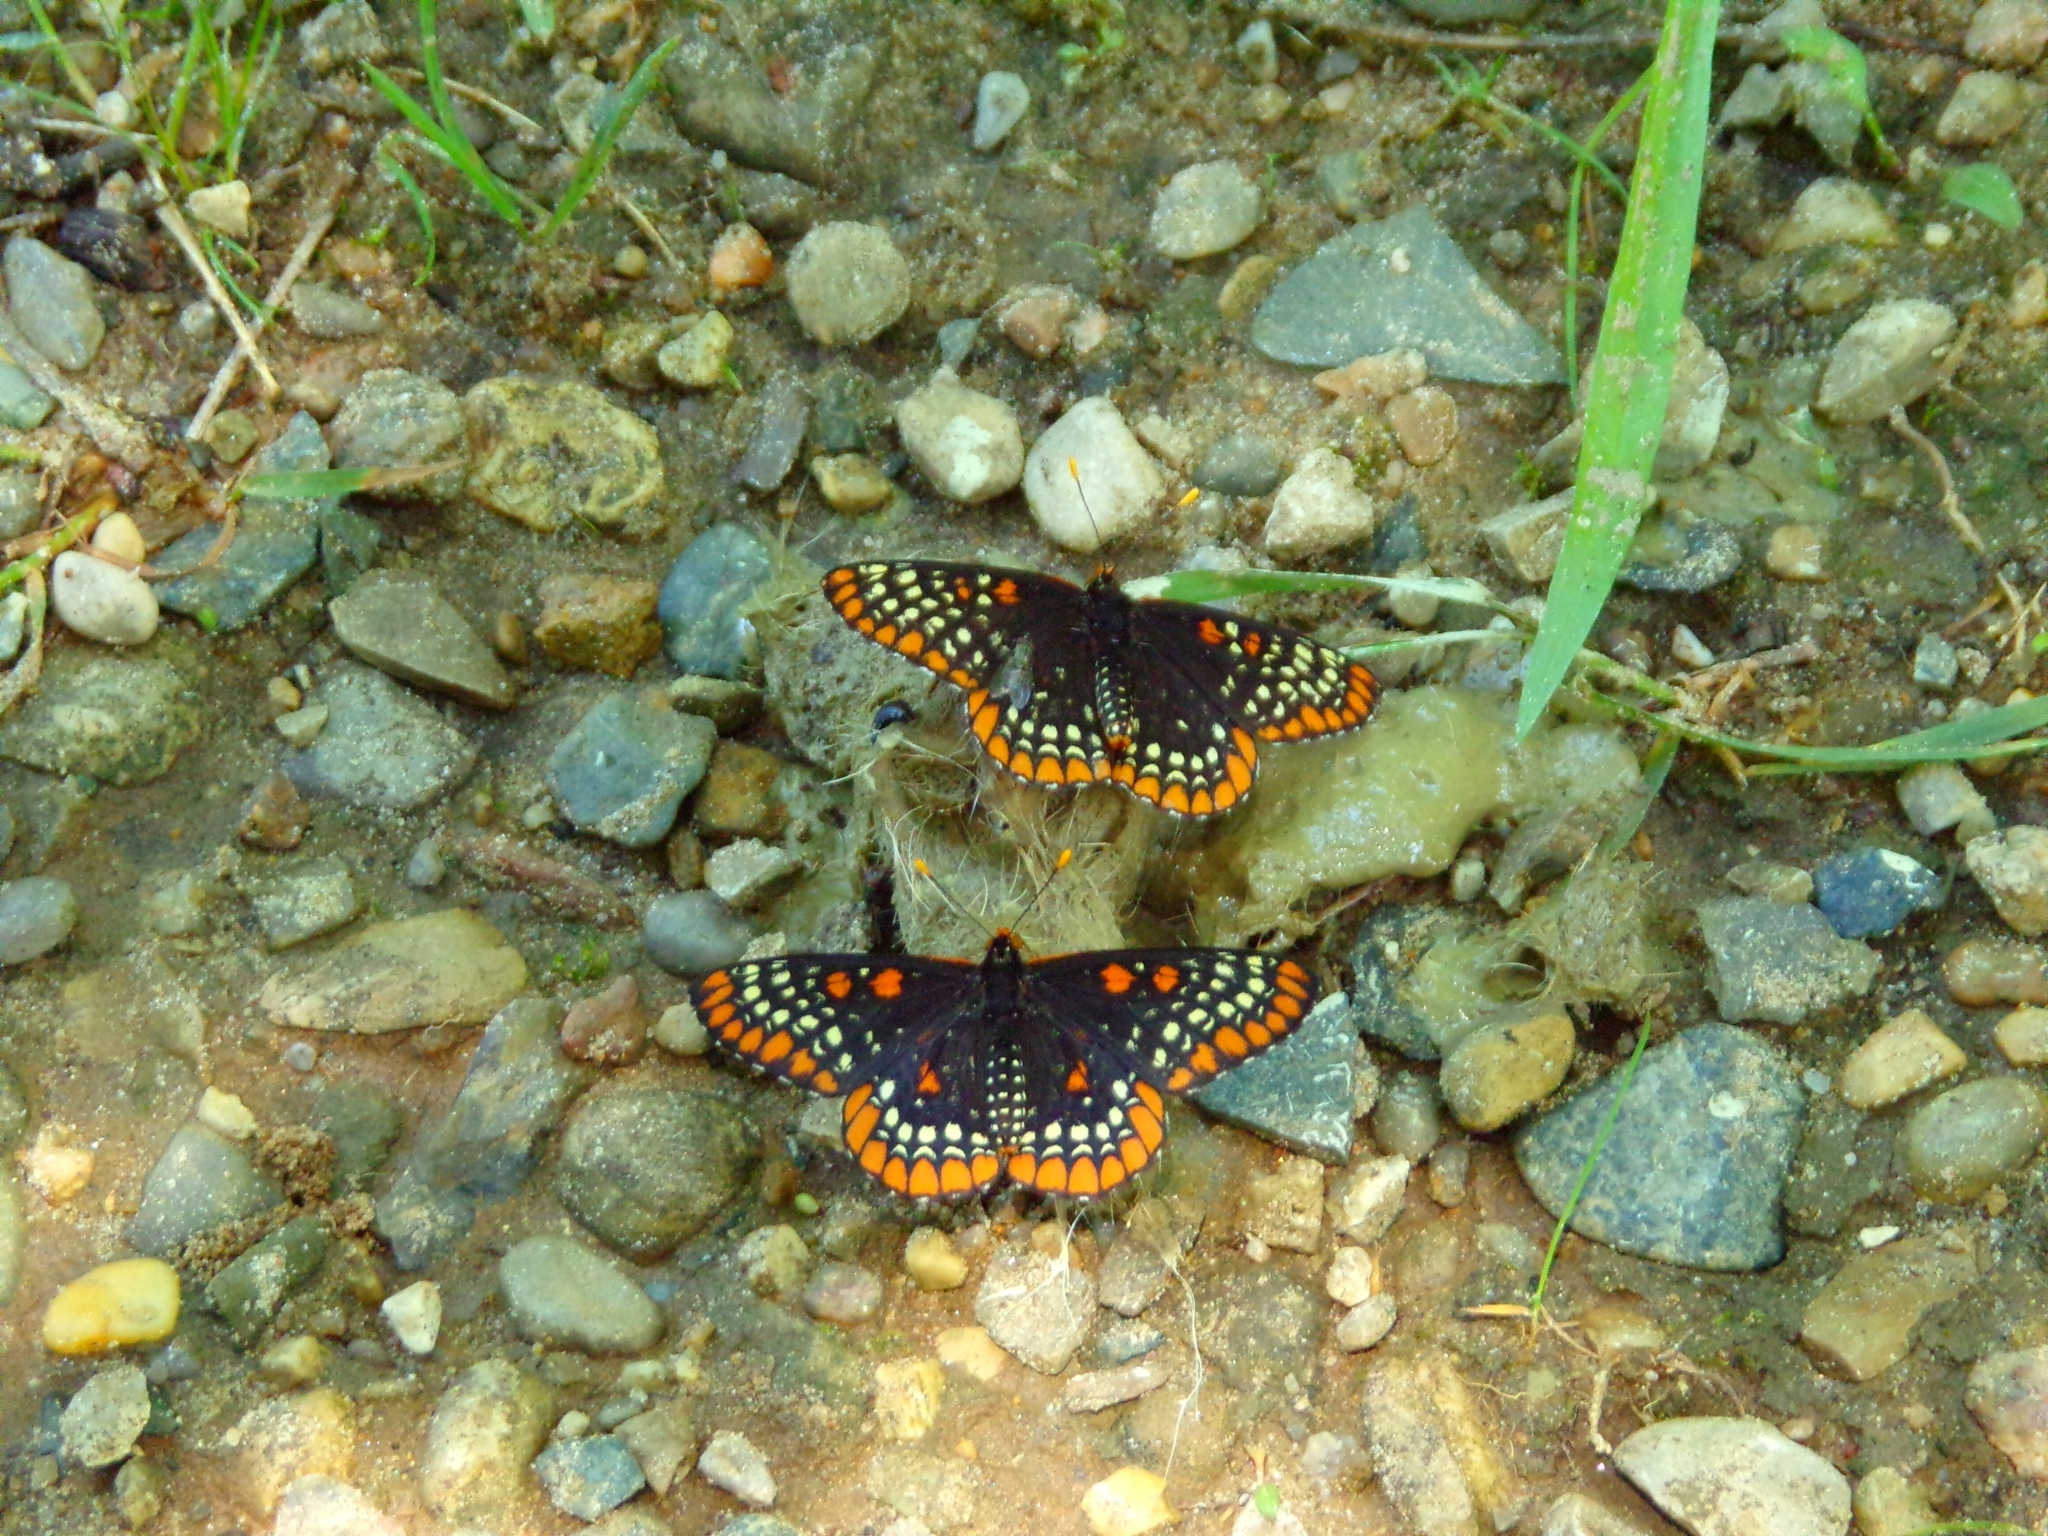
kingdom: Animalia
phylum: Arthropoda
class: Insecta
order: Lepidoptera
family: Nymphalidae
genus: Euphydryas
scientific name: Euphydryas phaeton
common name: Baltimore checkerspot
